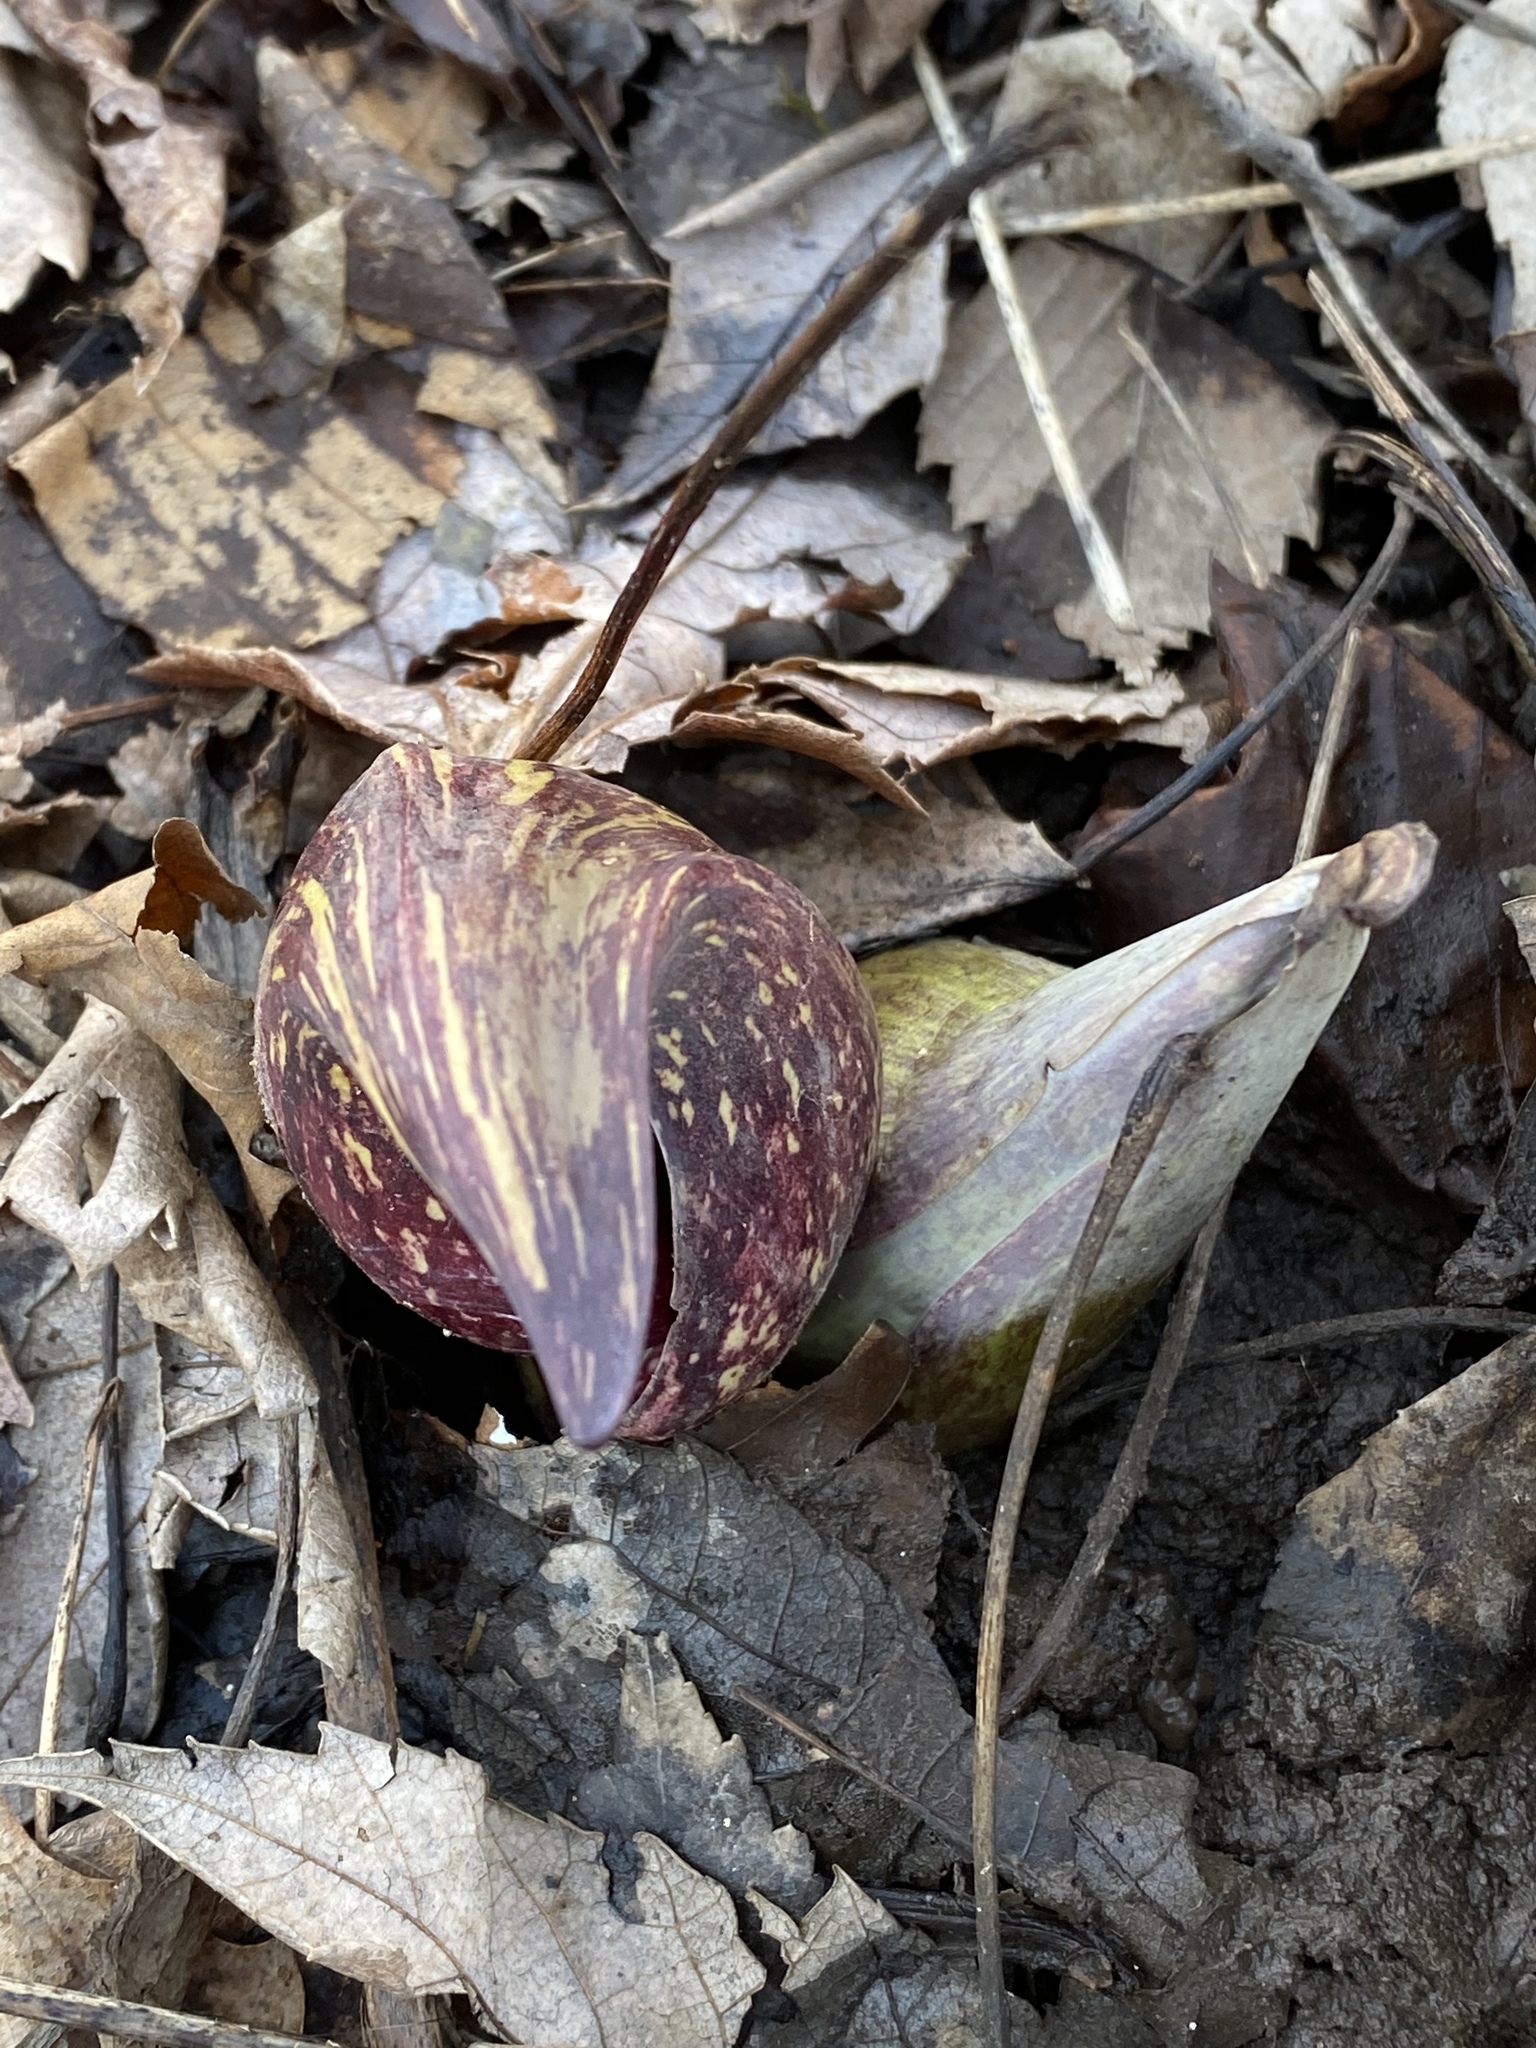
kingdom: Plantae
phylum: Tracheophyta
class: Liliopsida
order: Alismatales
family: Araceae
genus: Symplocarpus
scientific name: Symplocarpus foetidus
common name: Eastern skunk cabbage
